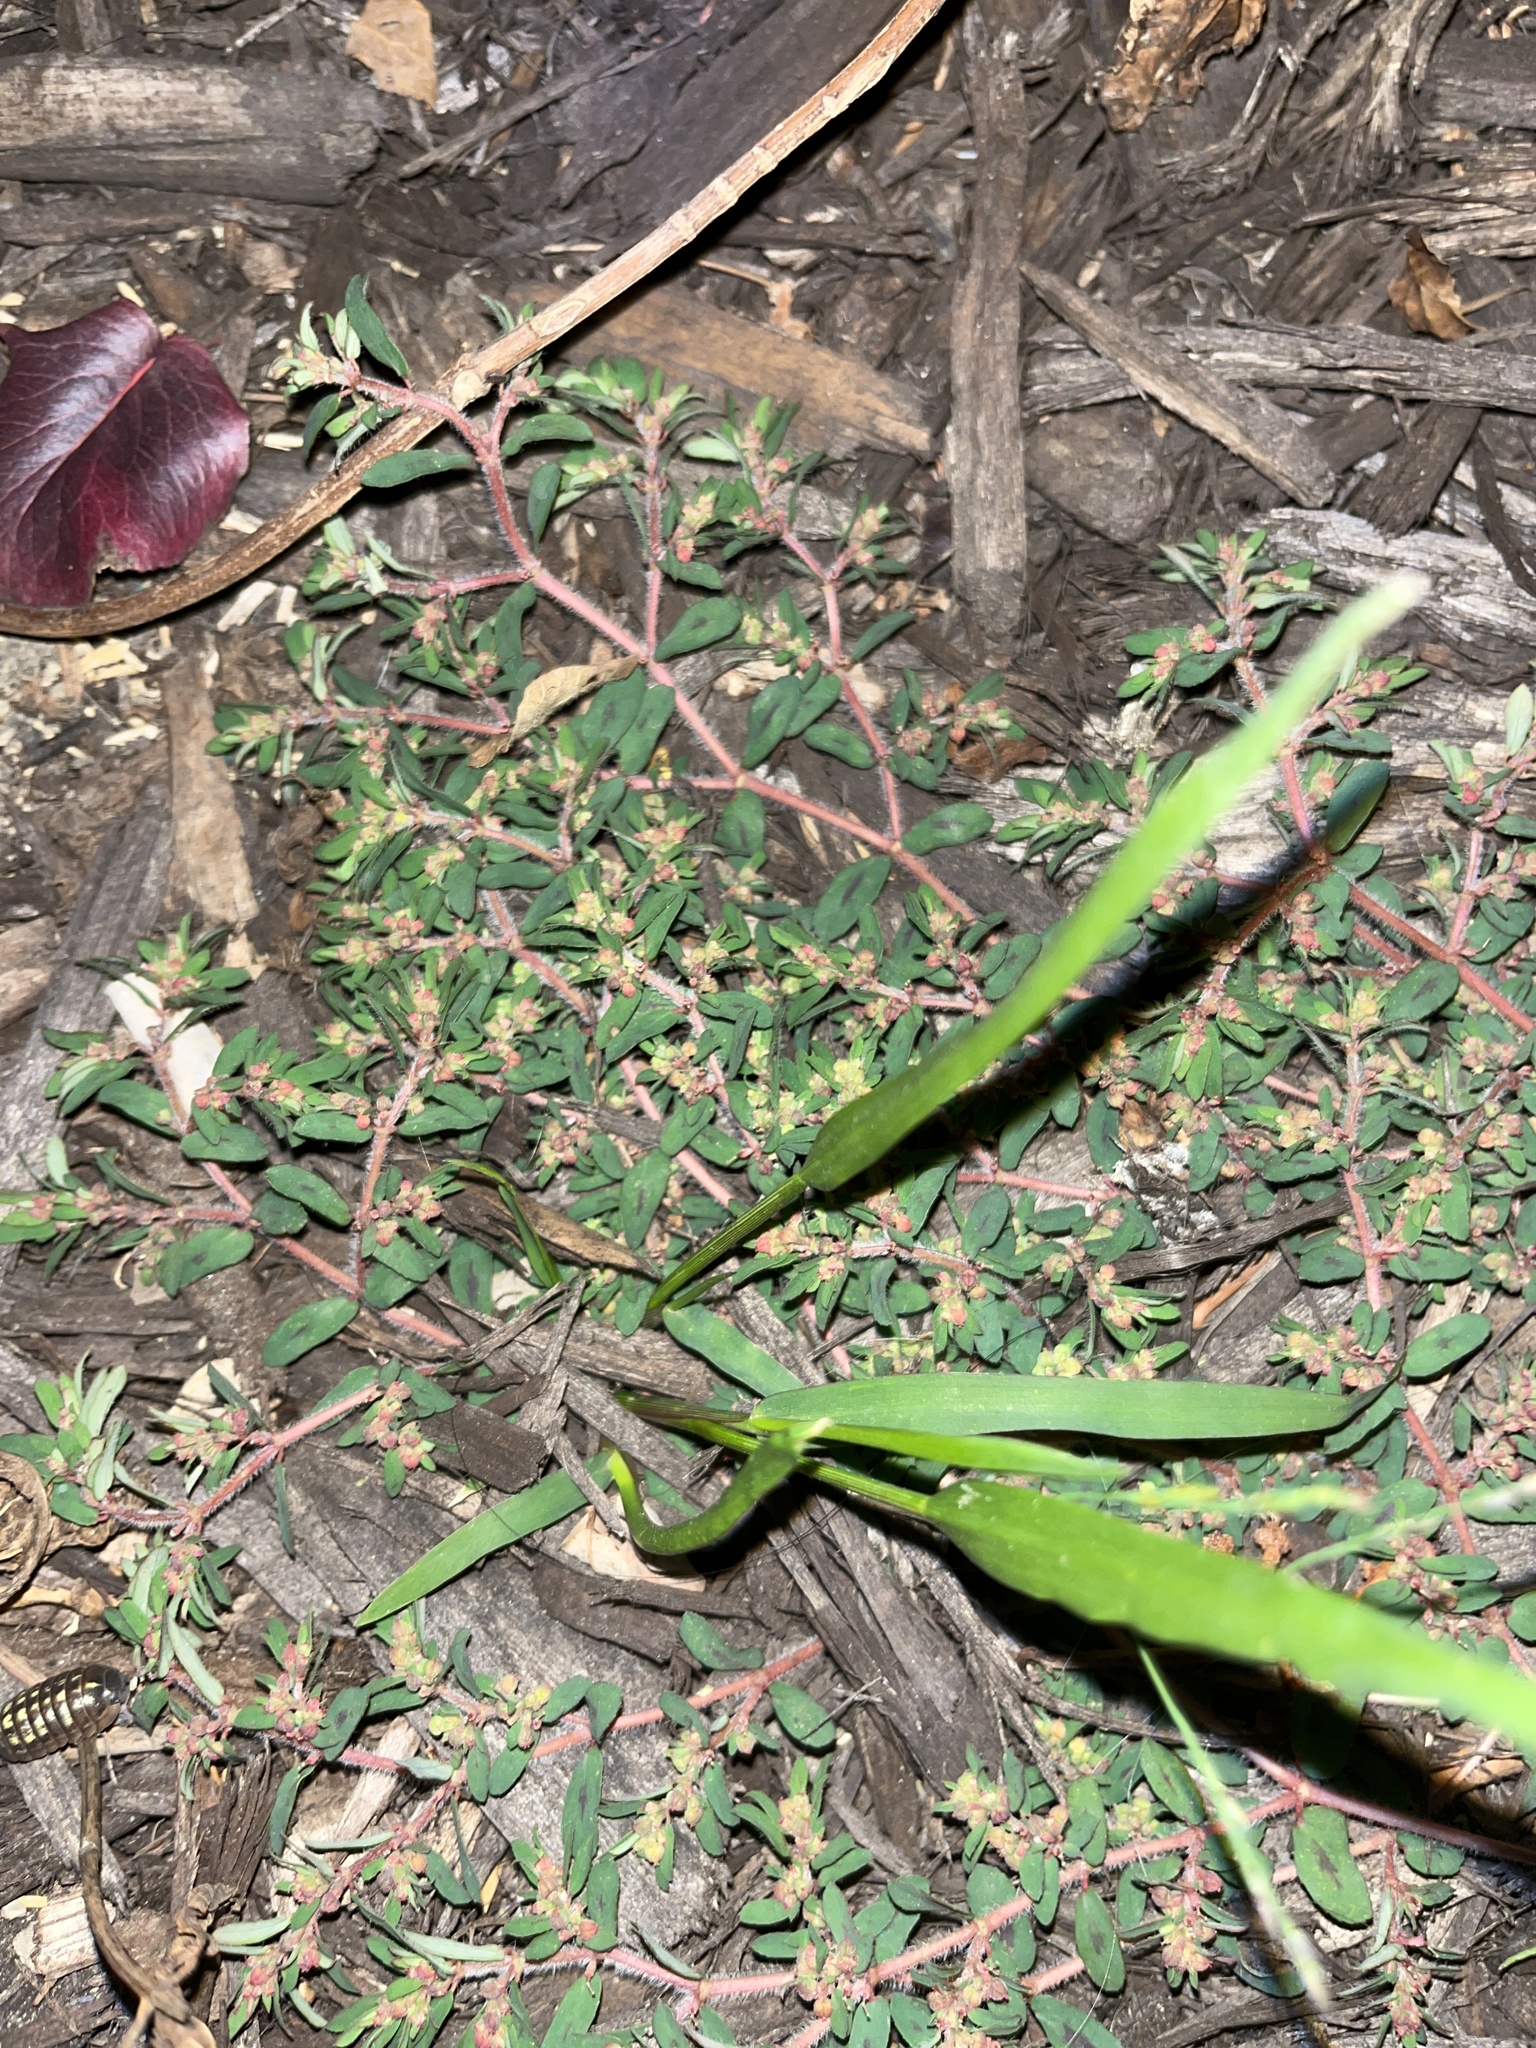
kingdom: Plantae
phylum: Tracheophyta
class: Magnoliopsida
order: Malpighiales
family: Euphorbiaceae
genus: Euphorbia
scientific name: Euphorbia maculata
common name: Spotted spurge
